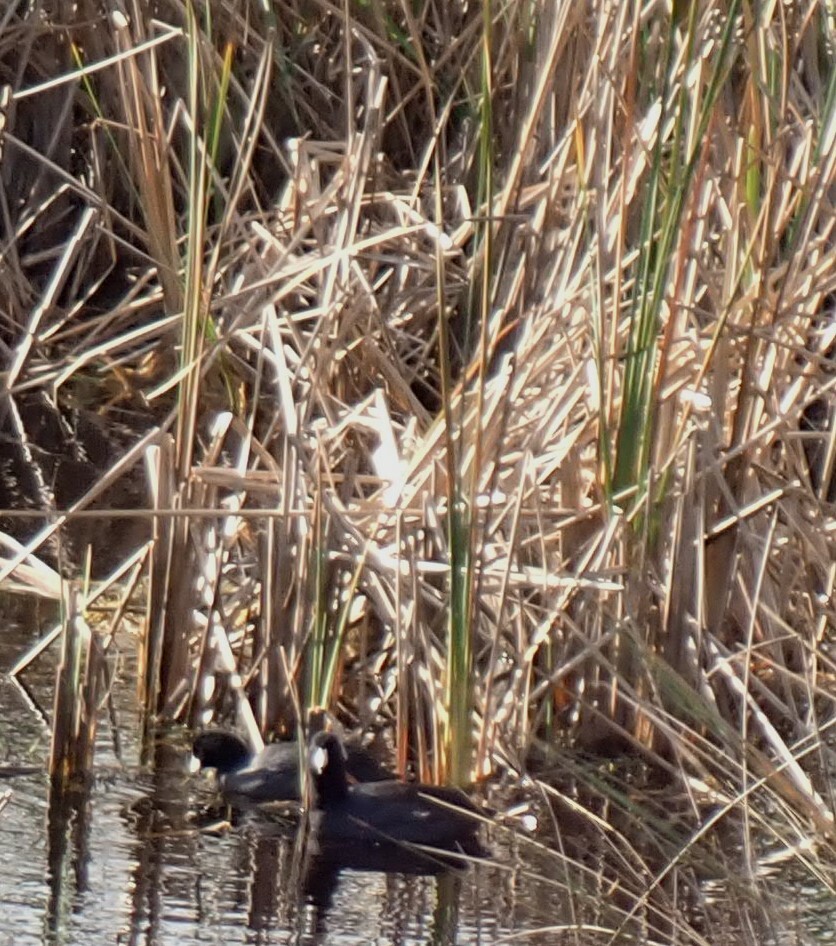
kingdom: Animalia
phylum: Chordata
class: Aves
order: Gruiformes
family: Rallidae
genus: Fulica
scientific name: Fulica americana
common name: American coot
